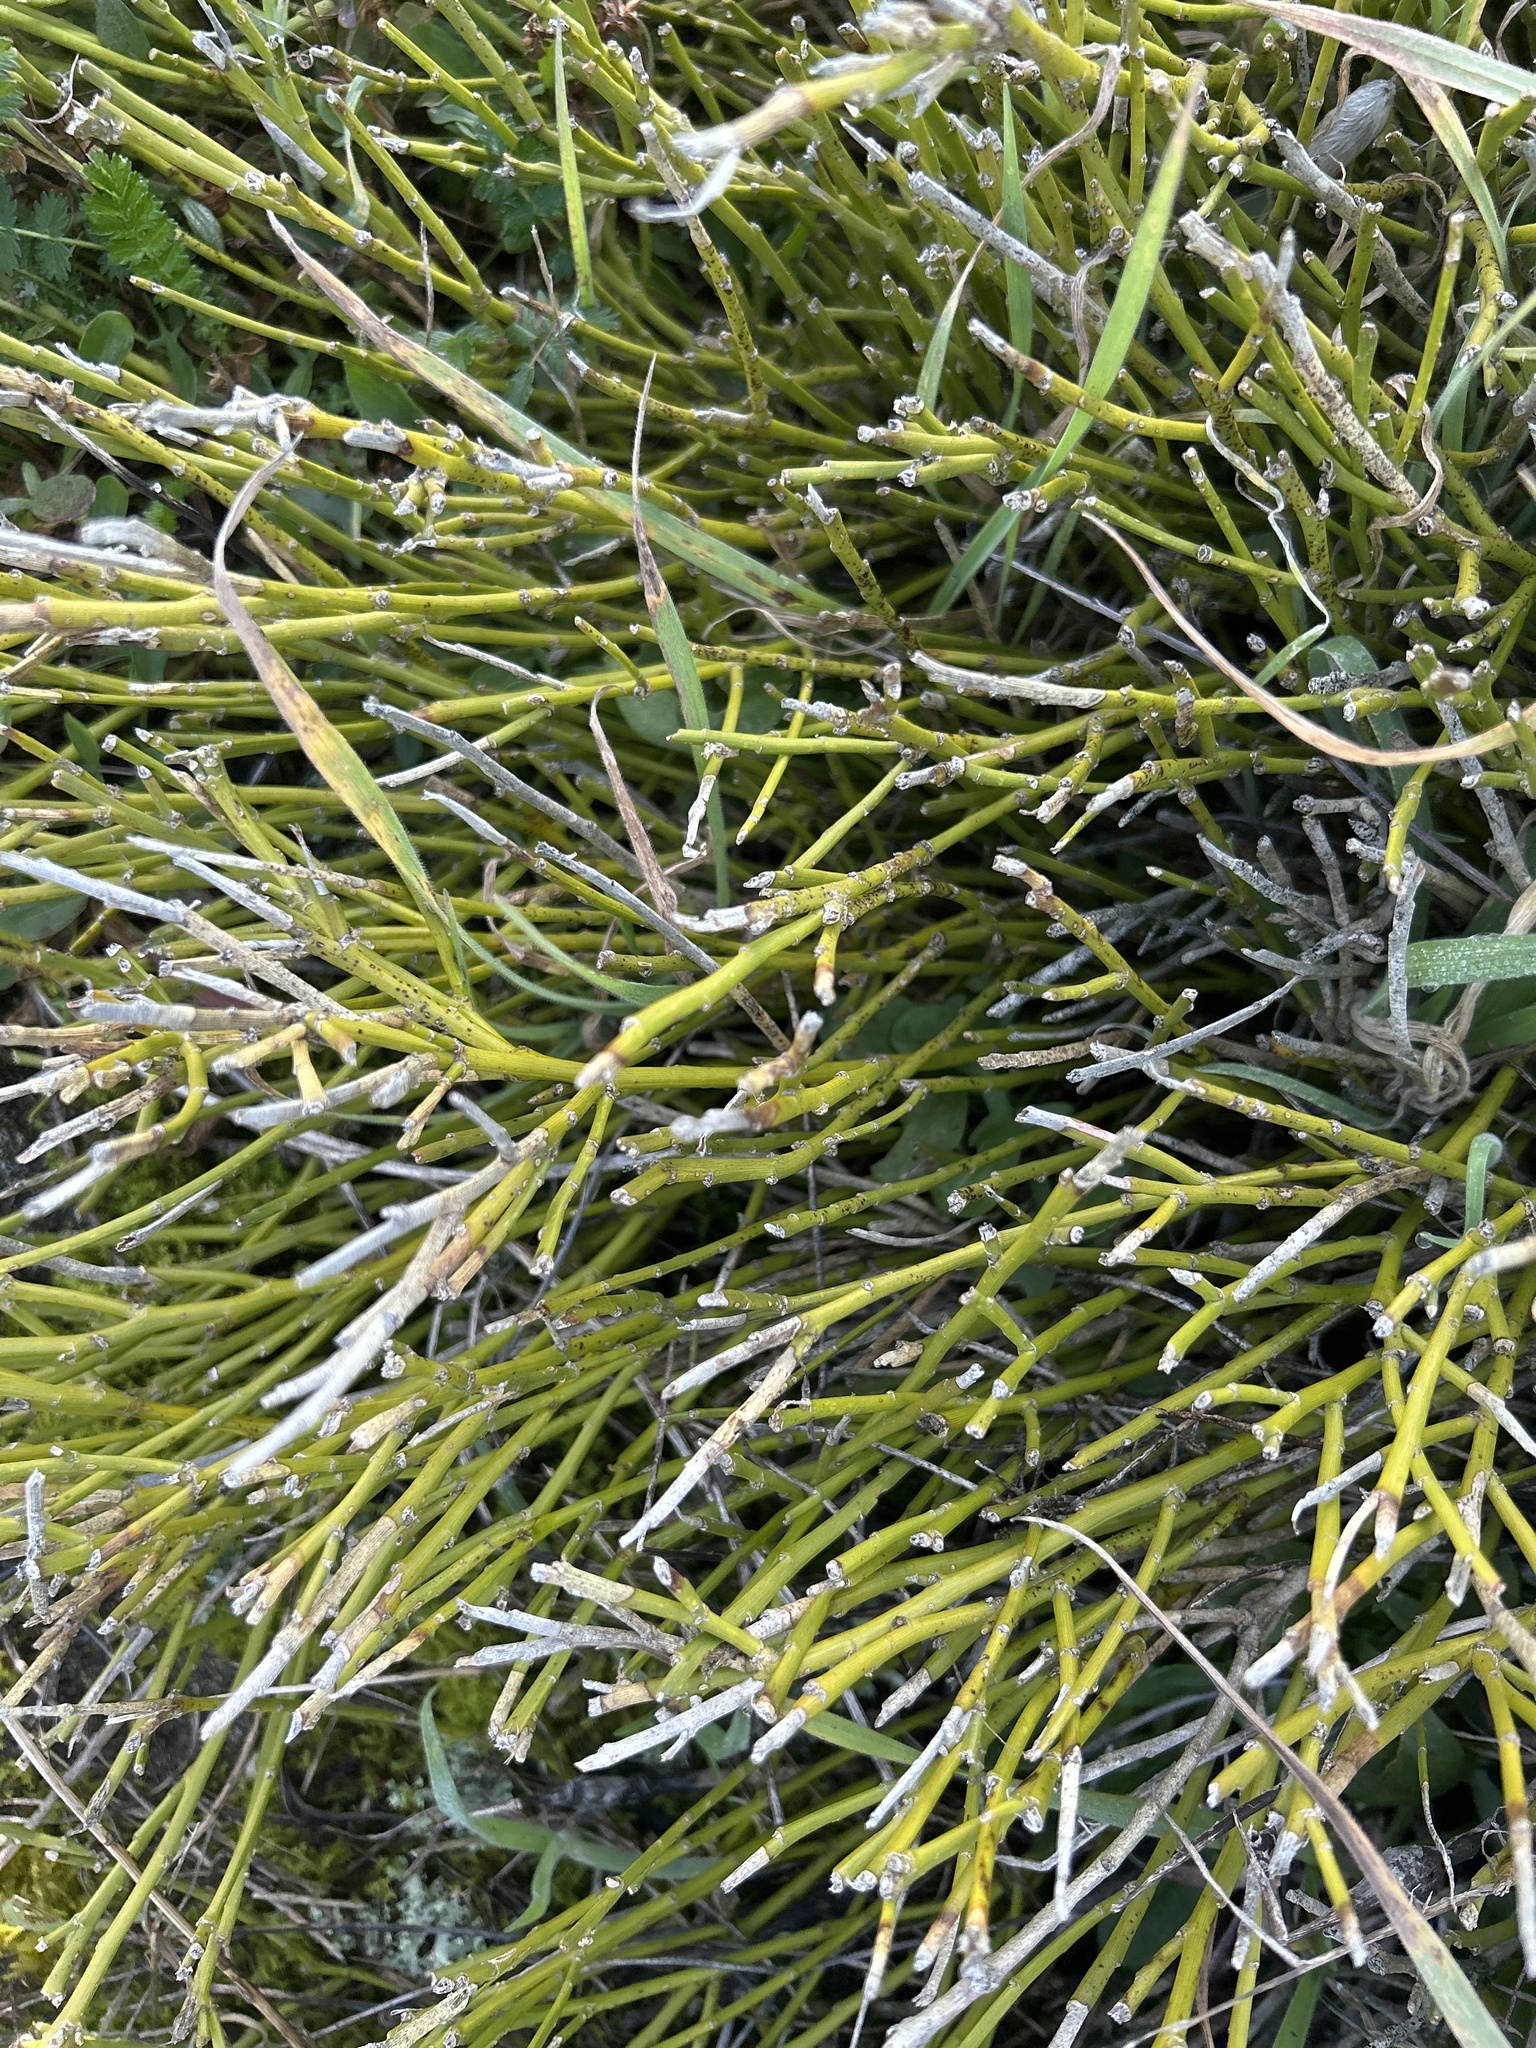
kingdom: Plantae
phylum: Tracheophyta
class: Magnoliopsida
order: Fabales
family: Fabaceae
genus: Carmichaelia
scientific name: Carmichaelia appressa
